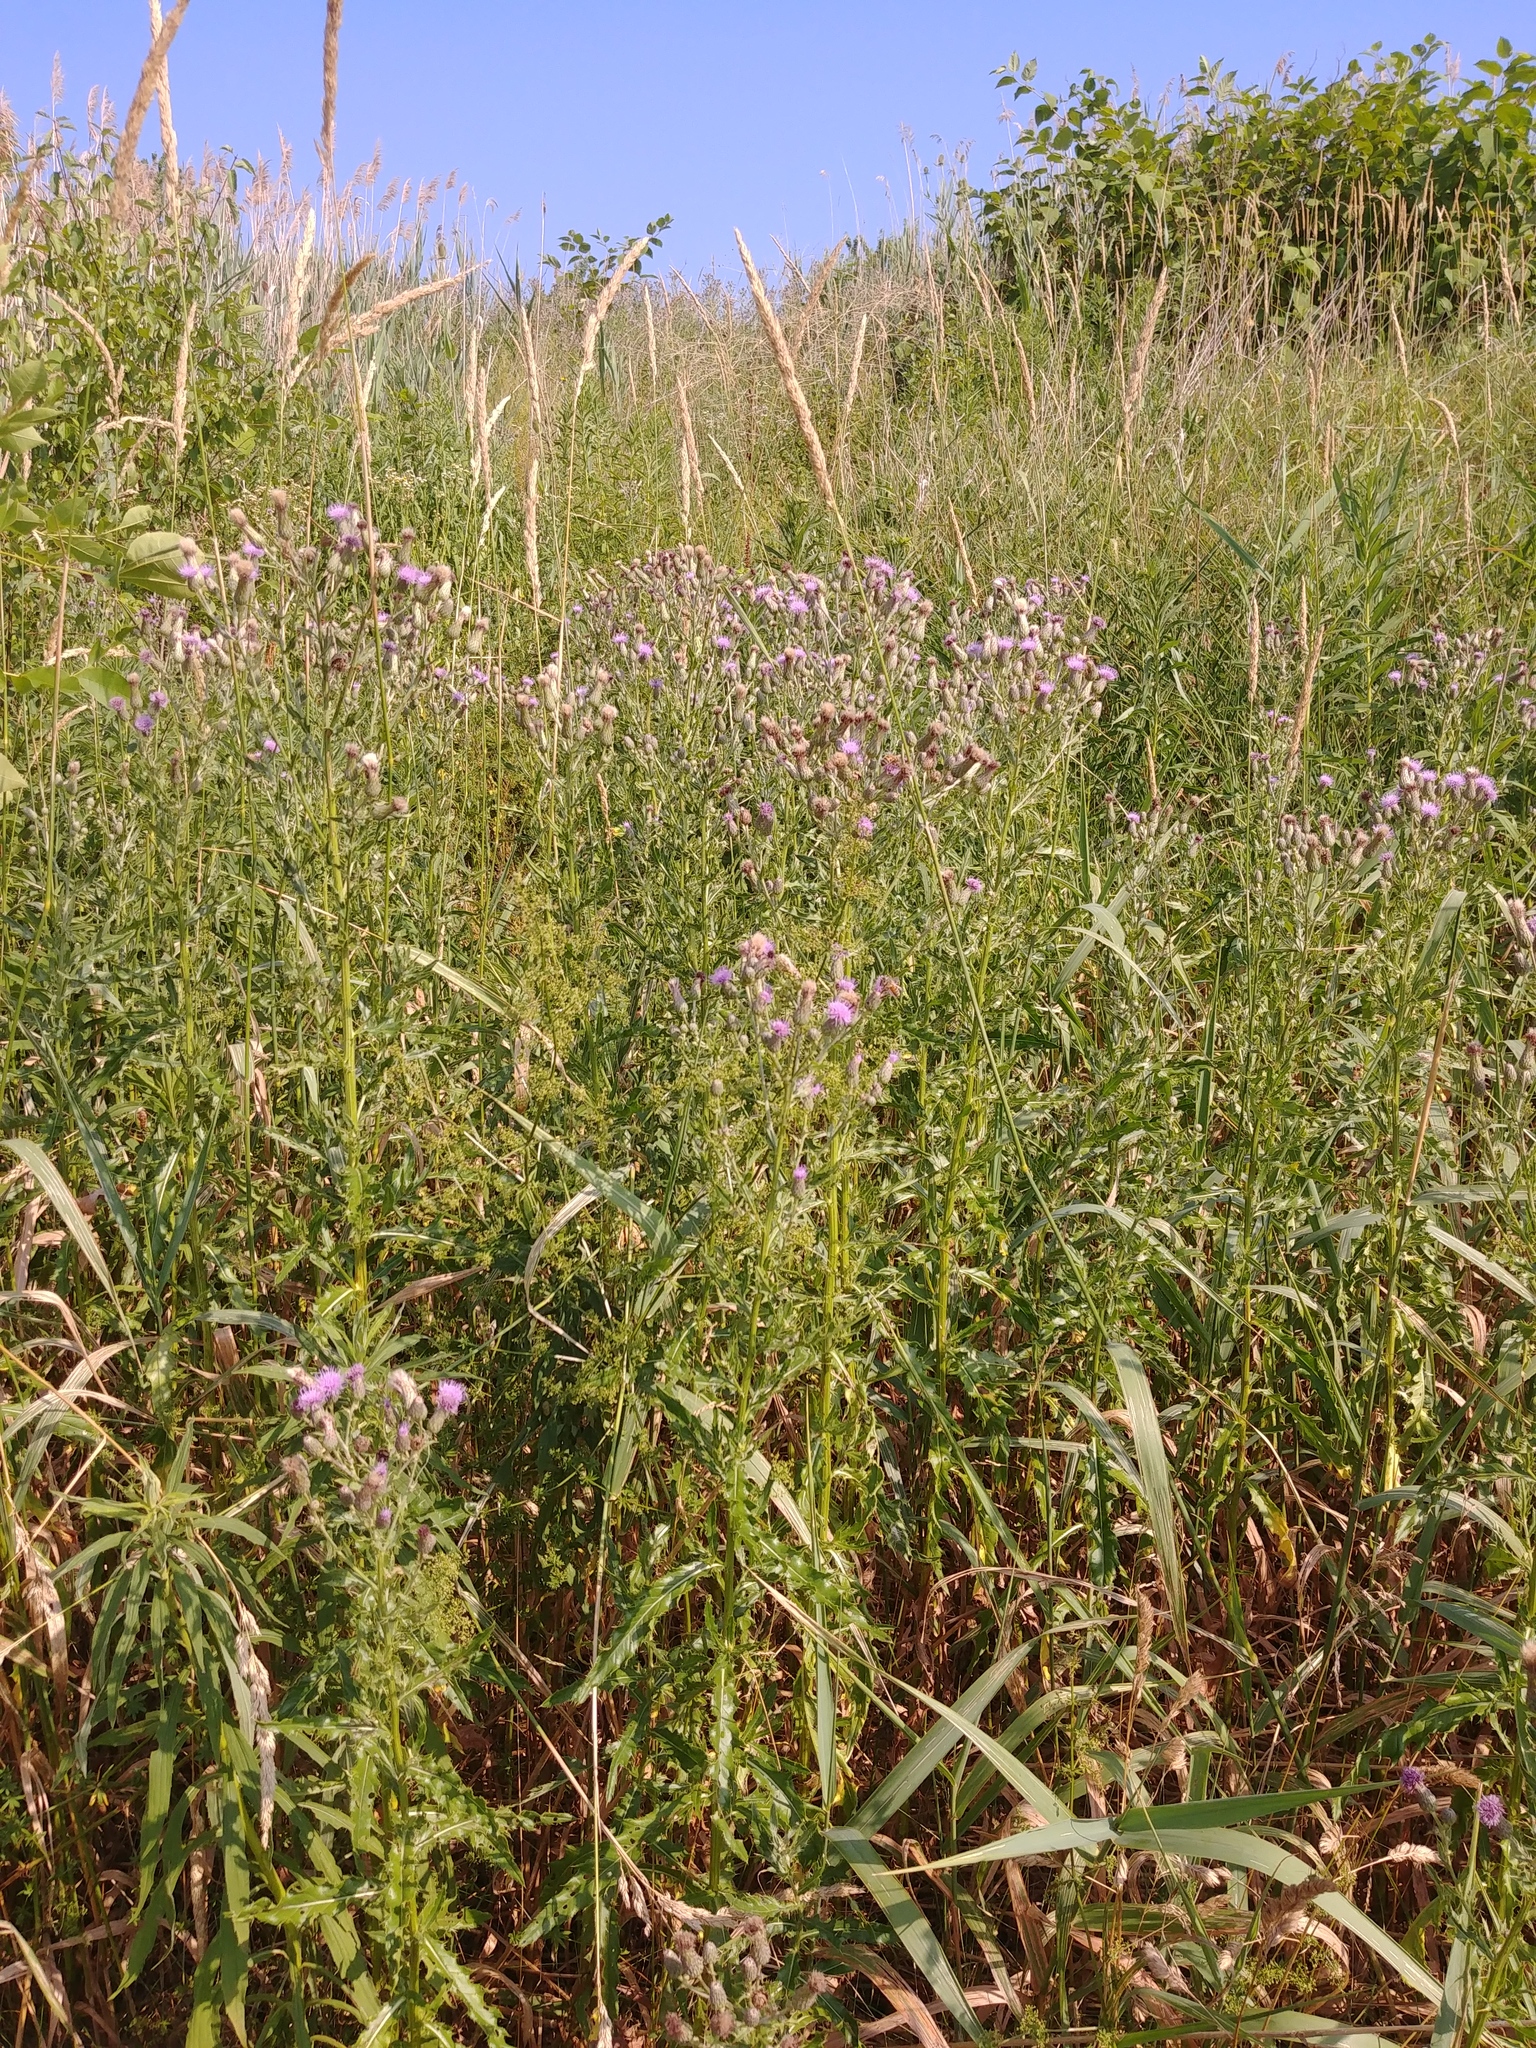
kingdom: Plantae
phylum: Tracheophyta
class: Magnoliopsida
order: Asterales
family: Asteraceae
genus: Cirsium
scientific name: Cirsium arvense
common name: Creeping thistle
